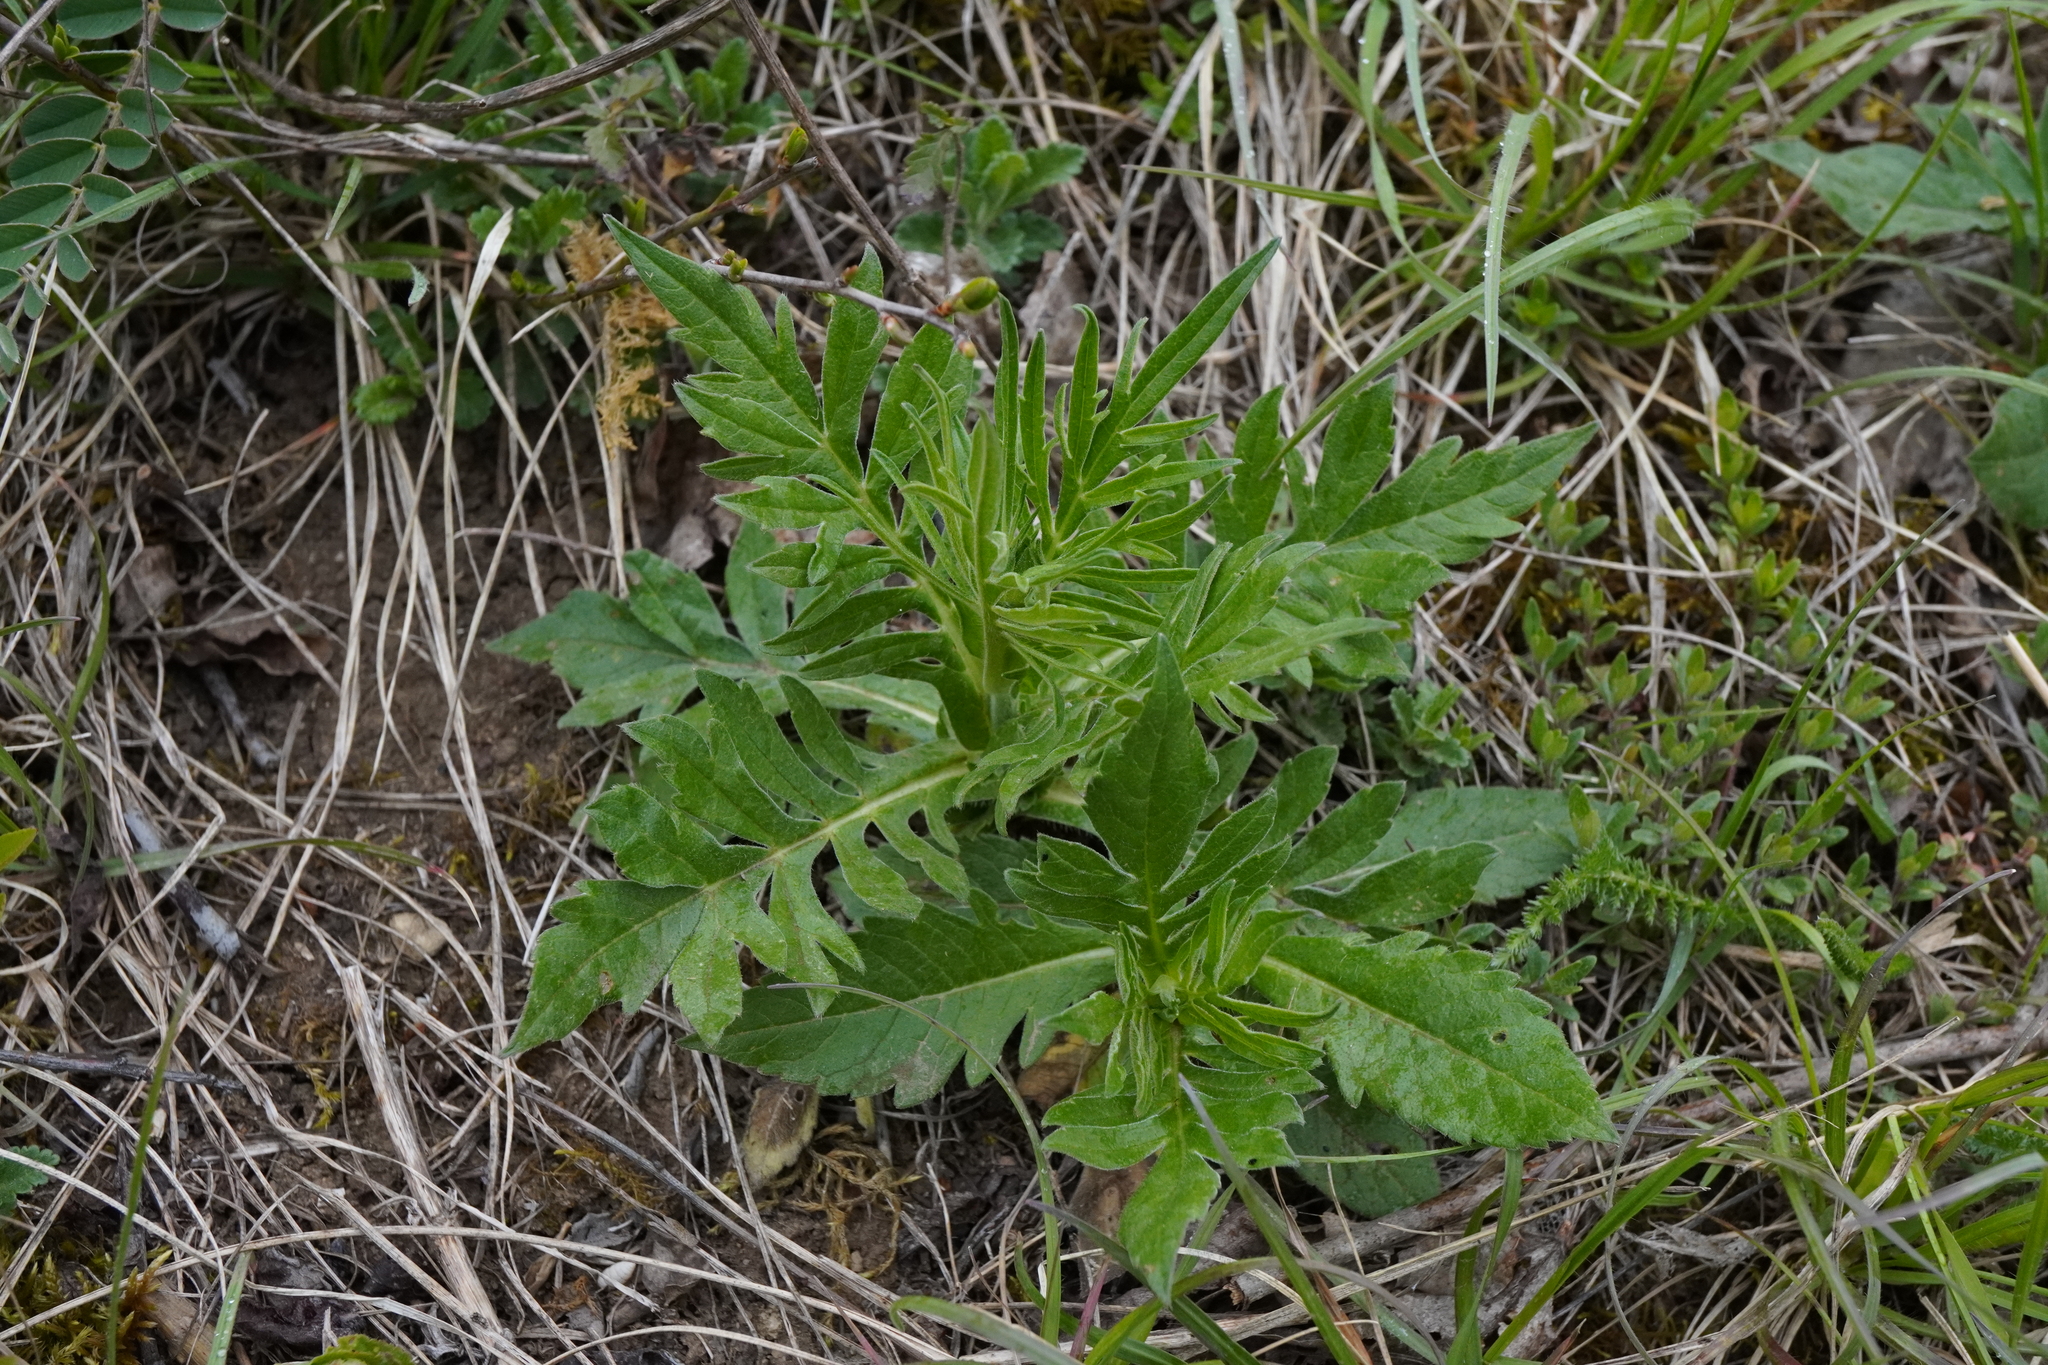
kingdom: Plantae
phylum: Tracheophyta
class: Magnoliopsida
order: Dipsacales
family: Caprifoliaceae
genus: Knautia
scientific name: Knautia arvensis
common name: Field scabiosa
